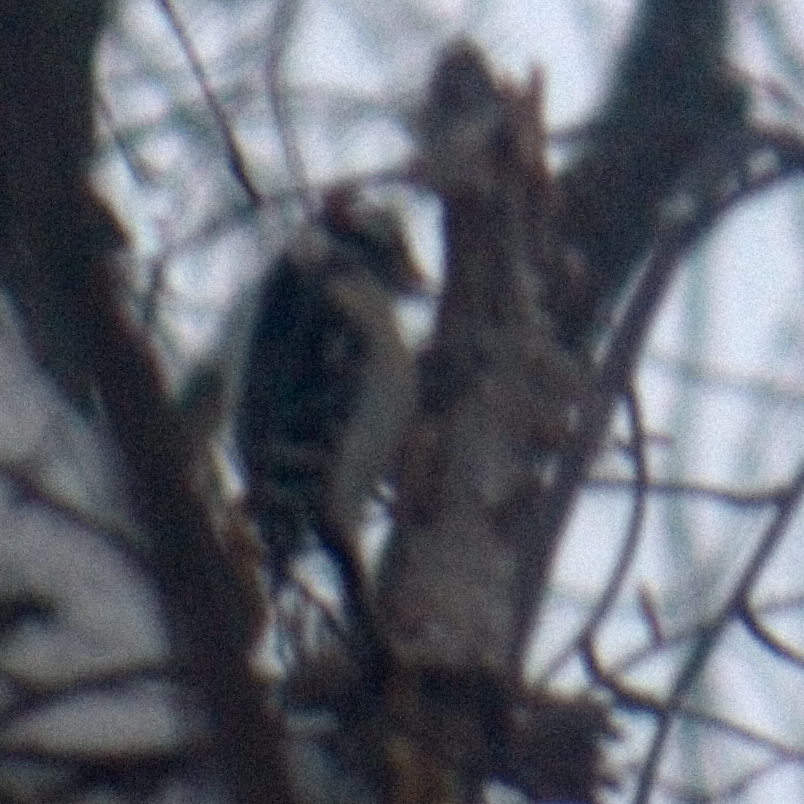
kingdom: Animalia
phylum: Chordata
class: Aves
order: Piciformes
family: Picidae
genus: Dryobates
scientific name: Dryobates pubescens
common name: Downy woodpecker
